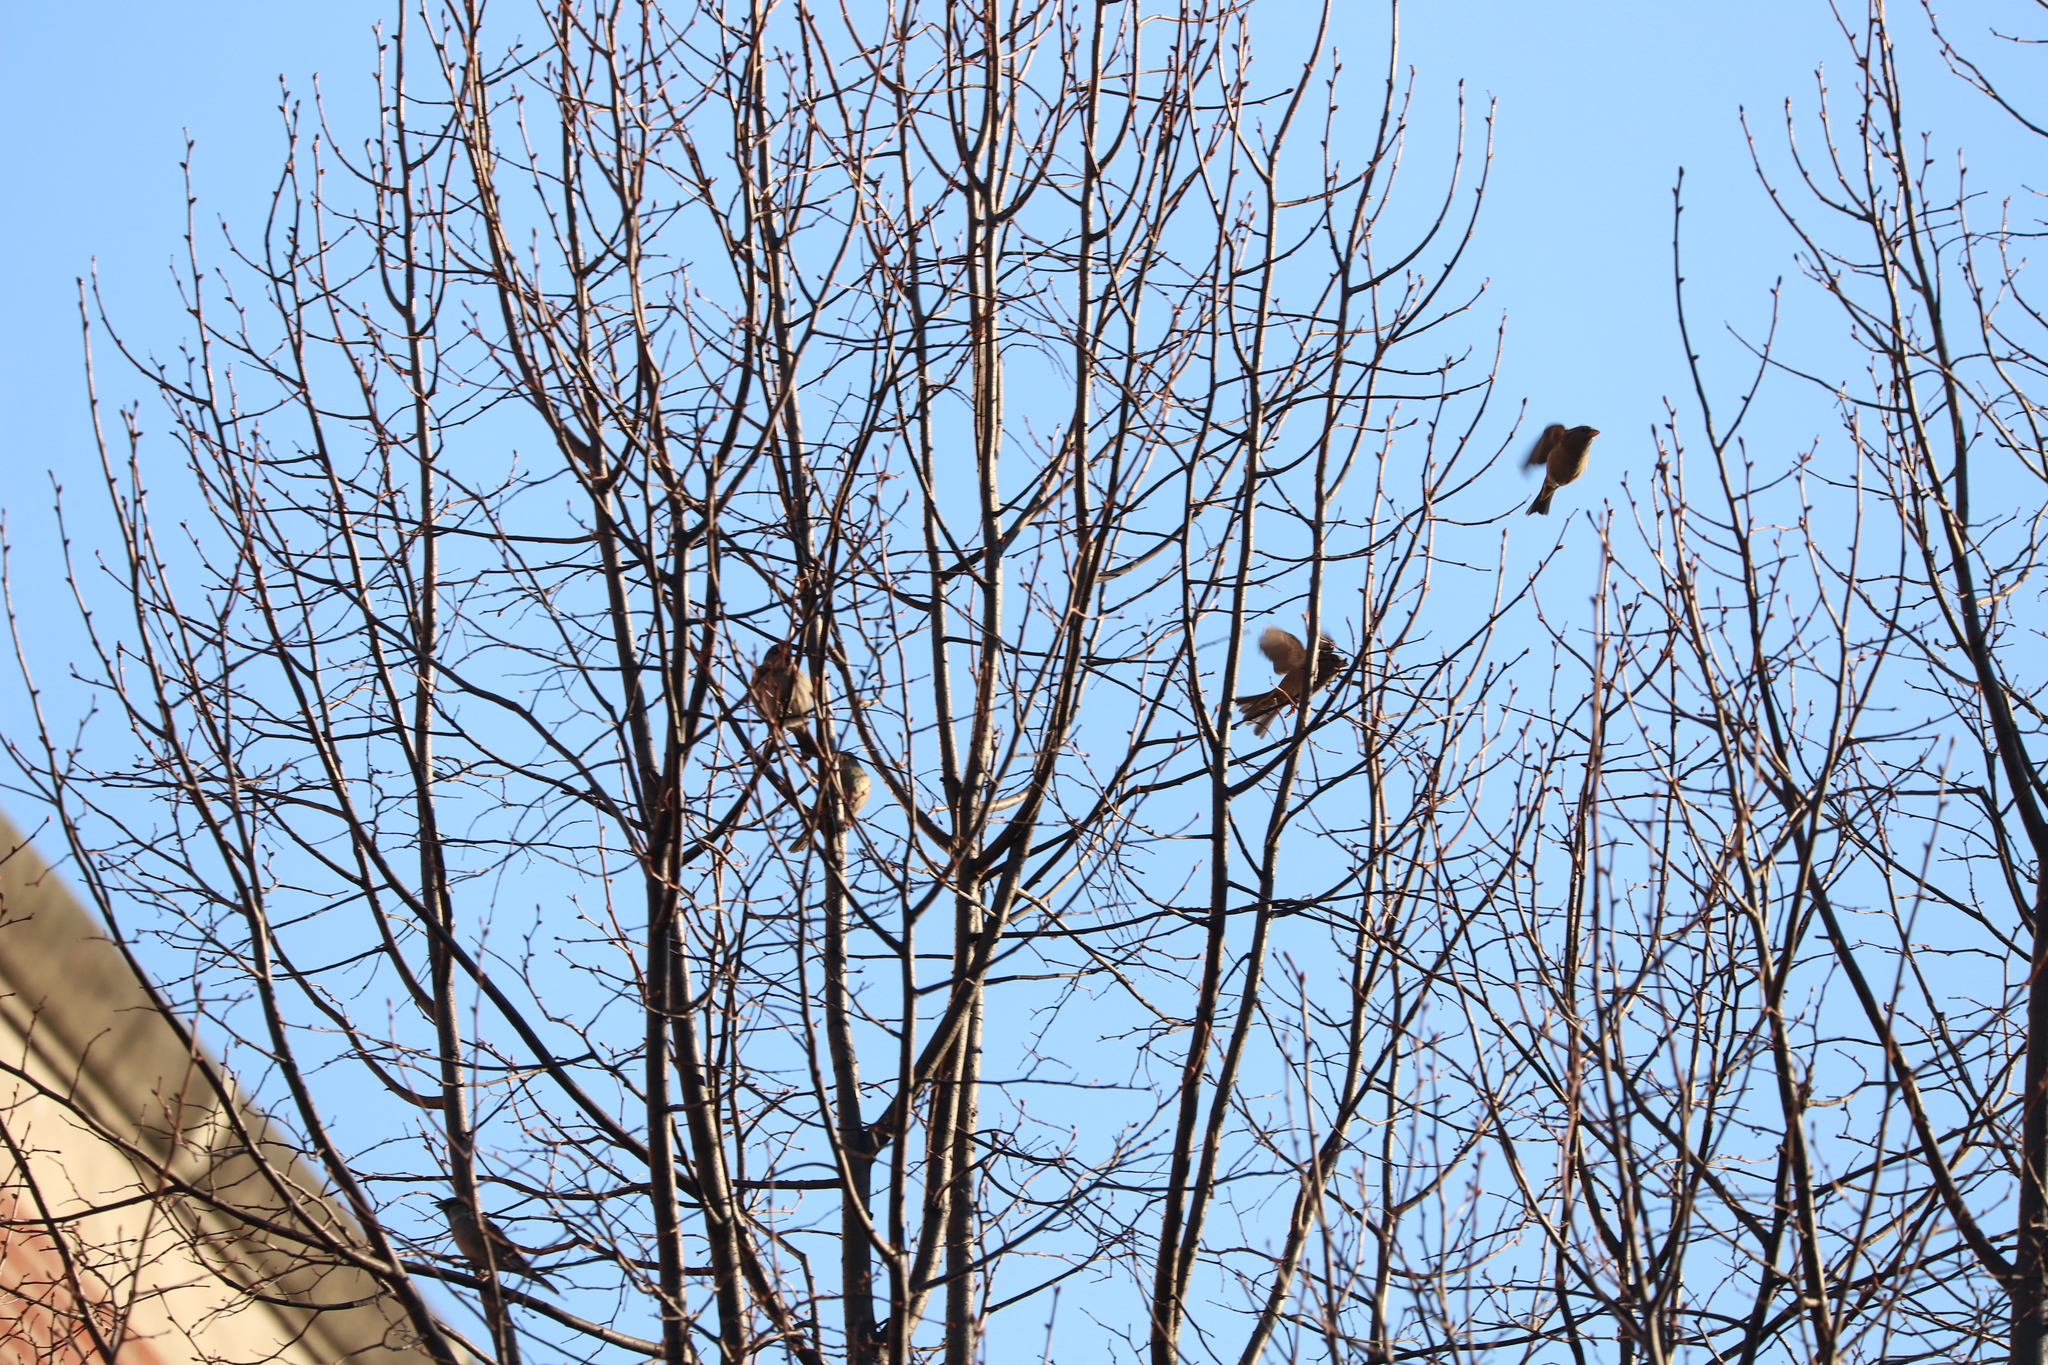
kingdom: Animalia
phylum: Chordata
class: Aves
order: Passeriformes
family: Passeridae
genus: Passer
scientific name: Passer domesticus
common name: House sparrow
